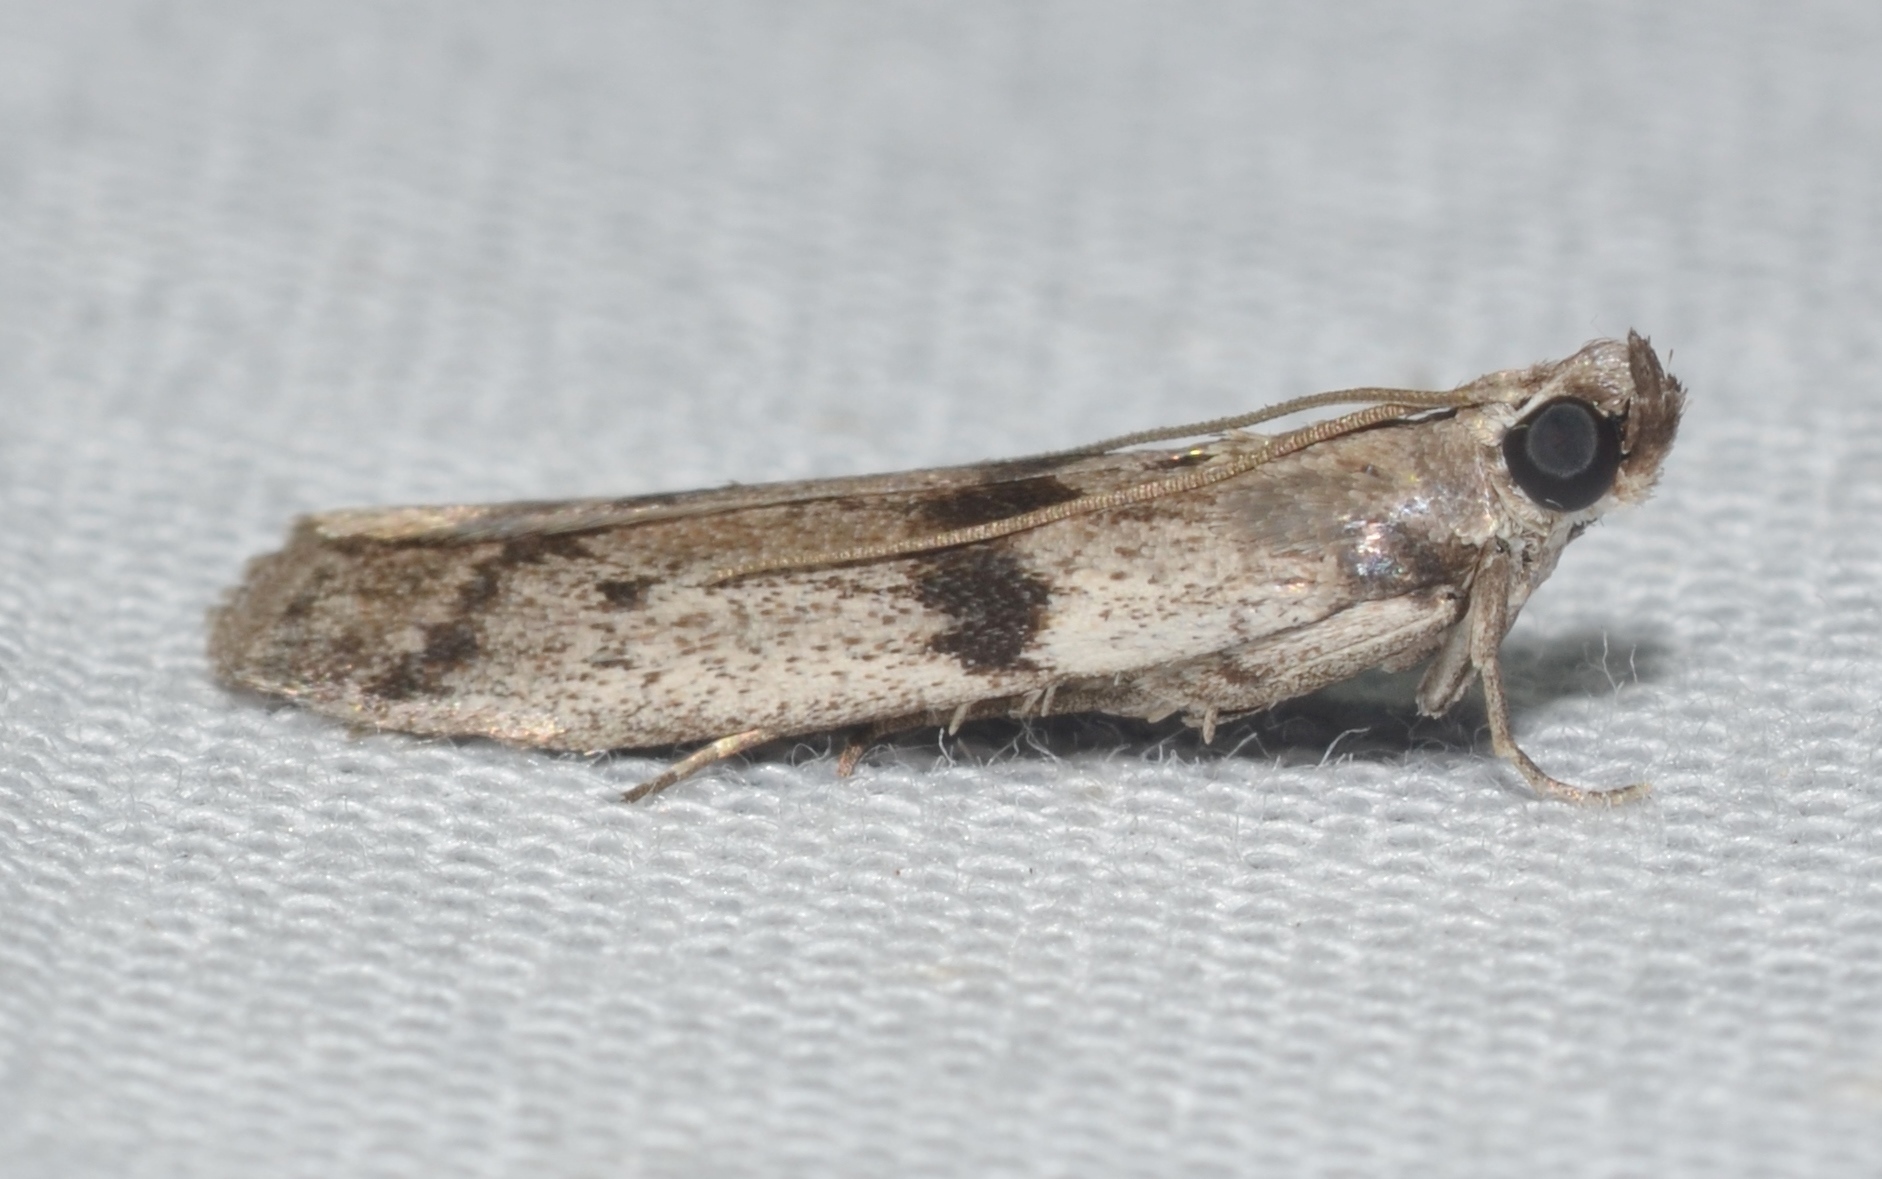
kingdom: Animalia
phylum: Arthropoda
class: Insecta
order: Lepidoptera
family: Pyralidae
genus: Homoeosoma
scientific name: Homoeosoma deceptorium
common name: Black-banded homoeosoma moth
